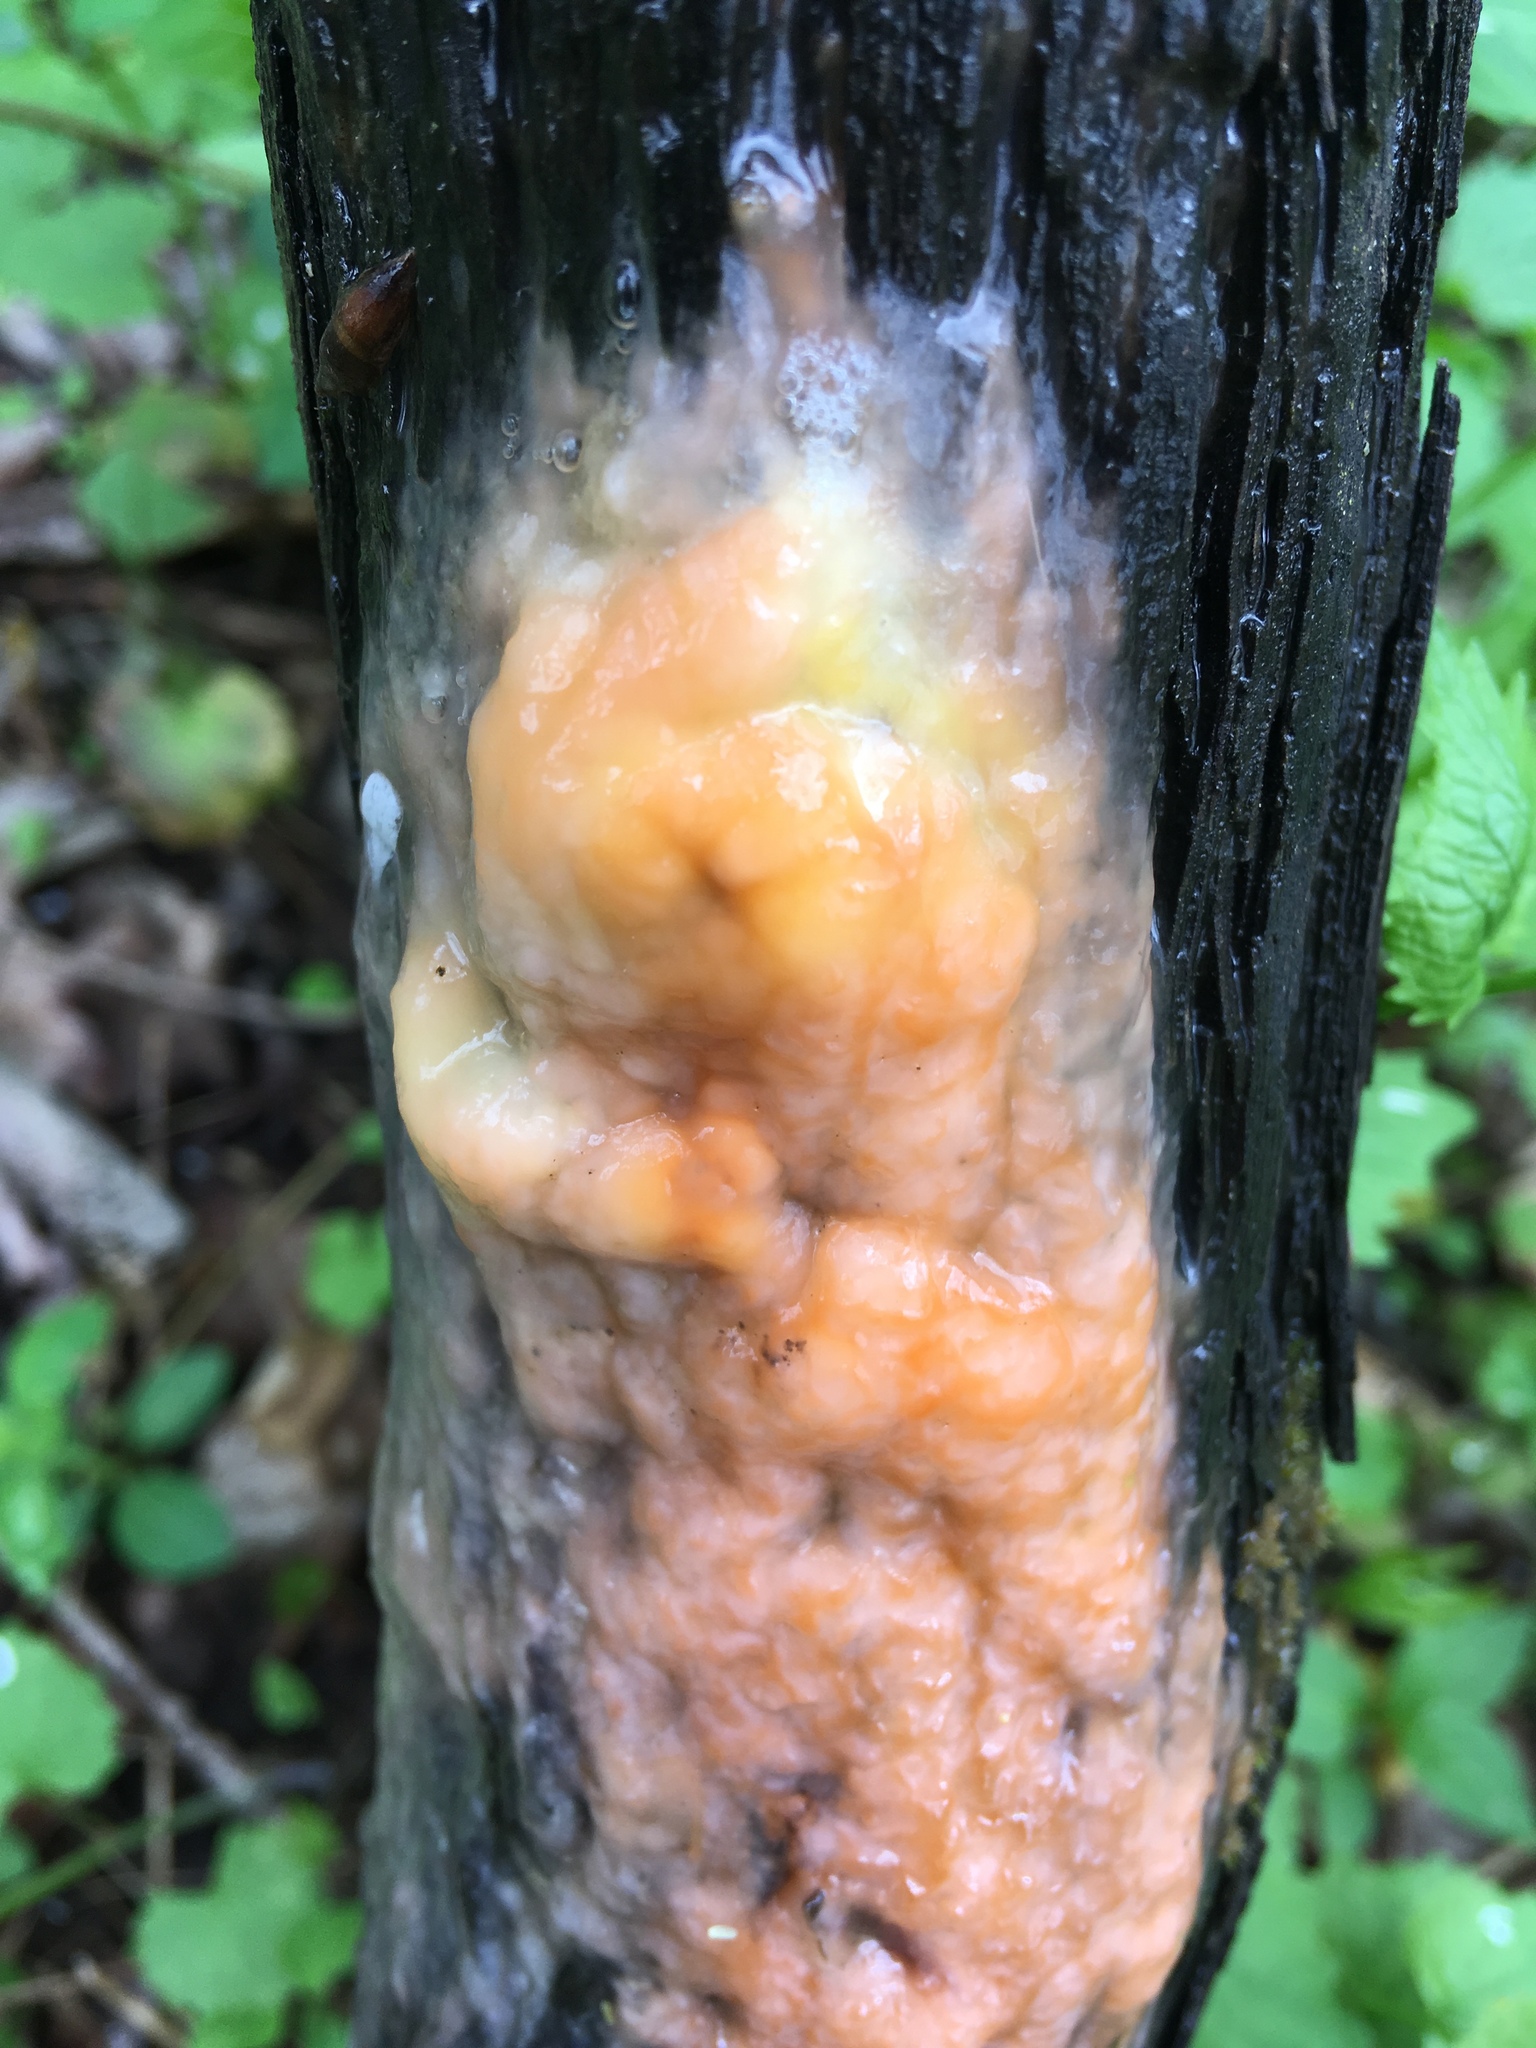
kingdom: Fungi
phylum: Ascomycota
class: Sordariomycetes
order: Hypocreales
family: Nectriaceae
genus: Fusicolla
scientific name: Fusicolla merismoides
